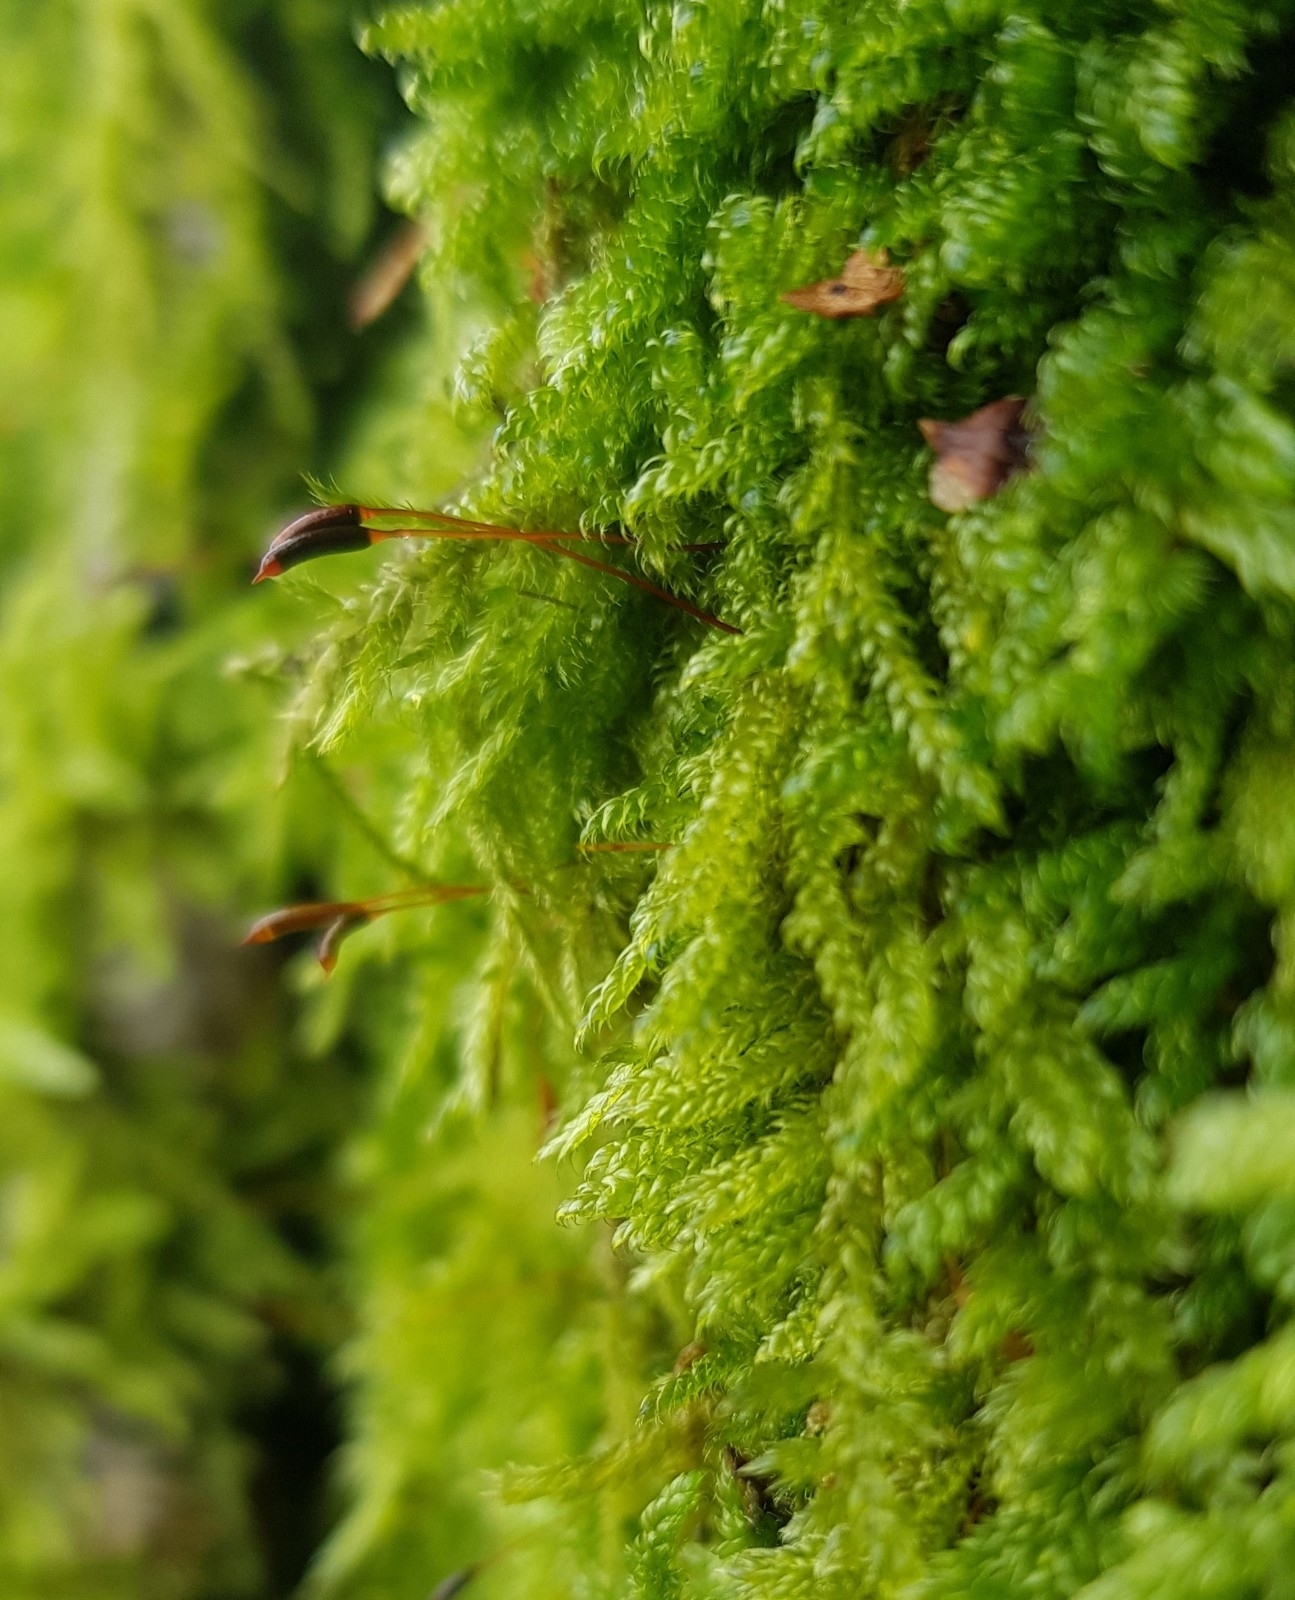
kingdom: Plantae
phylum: Bryophyta
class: Bryopsida
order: Hypnales
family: Hypnaceae
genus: Hypnum
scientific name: Hypnum cupressiforme
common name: Cypress-leaved plait-moss
